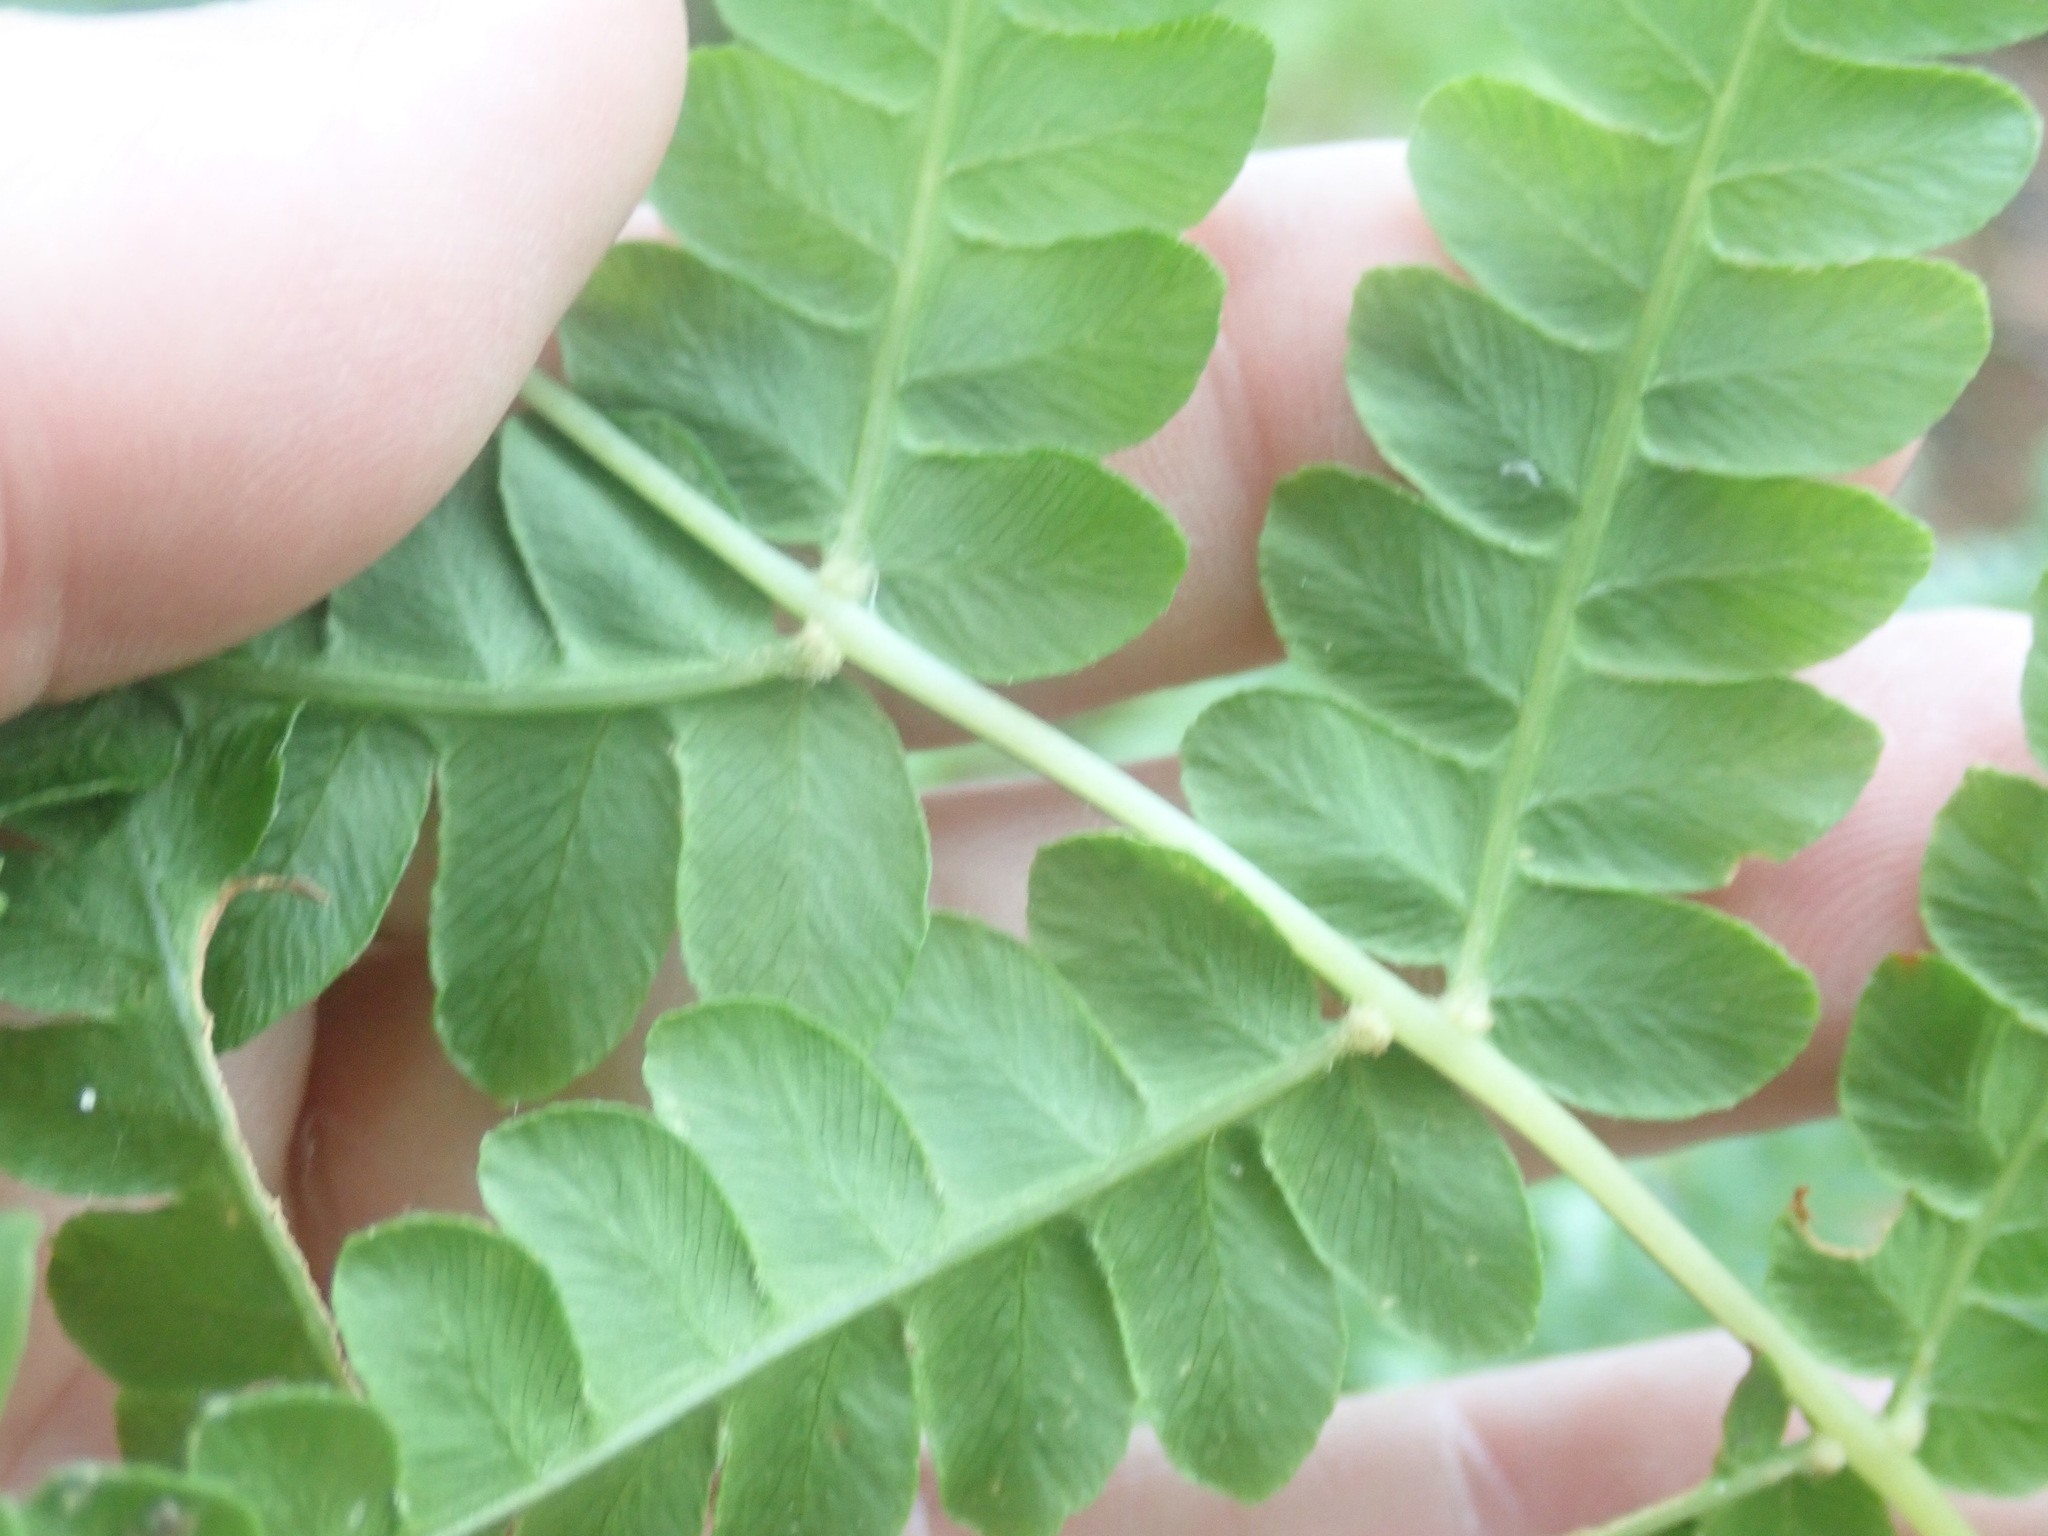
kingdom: Plantae
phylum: Tracheophyta
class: Polypodiopsida
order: Osmundales
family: Osmundaceae
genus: Osmundastrum
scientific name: Osmundastrum cinnamomeum
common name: Cinnamon fern
